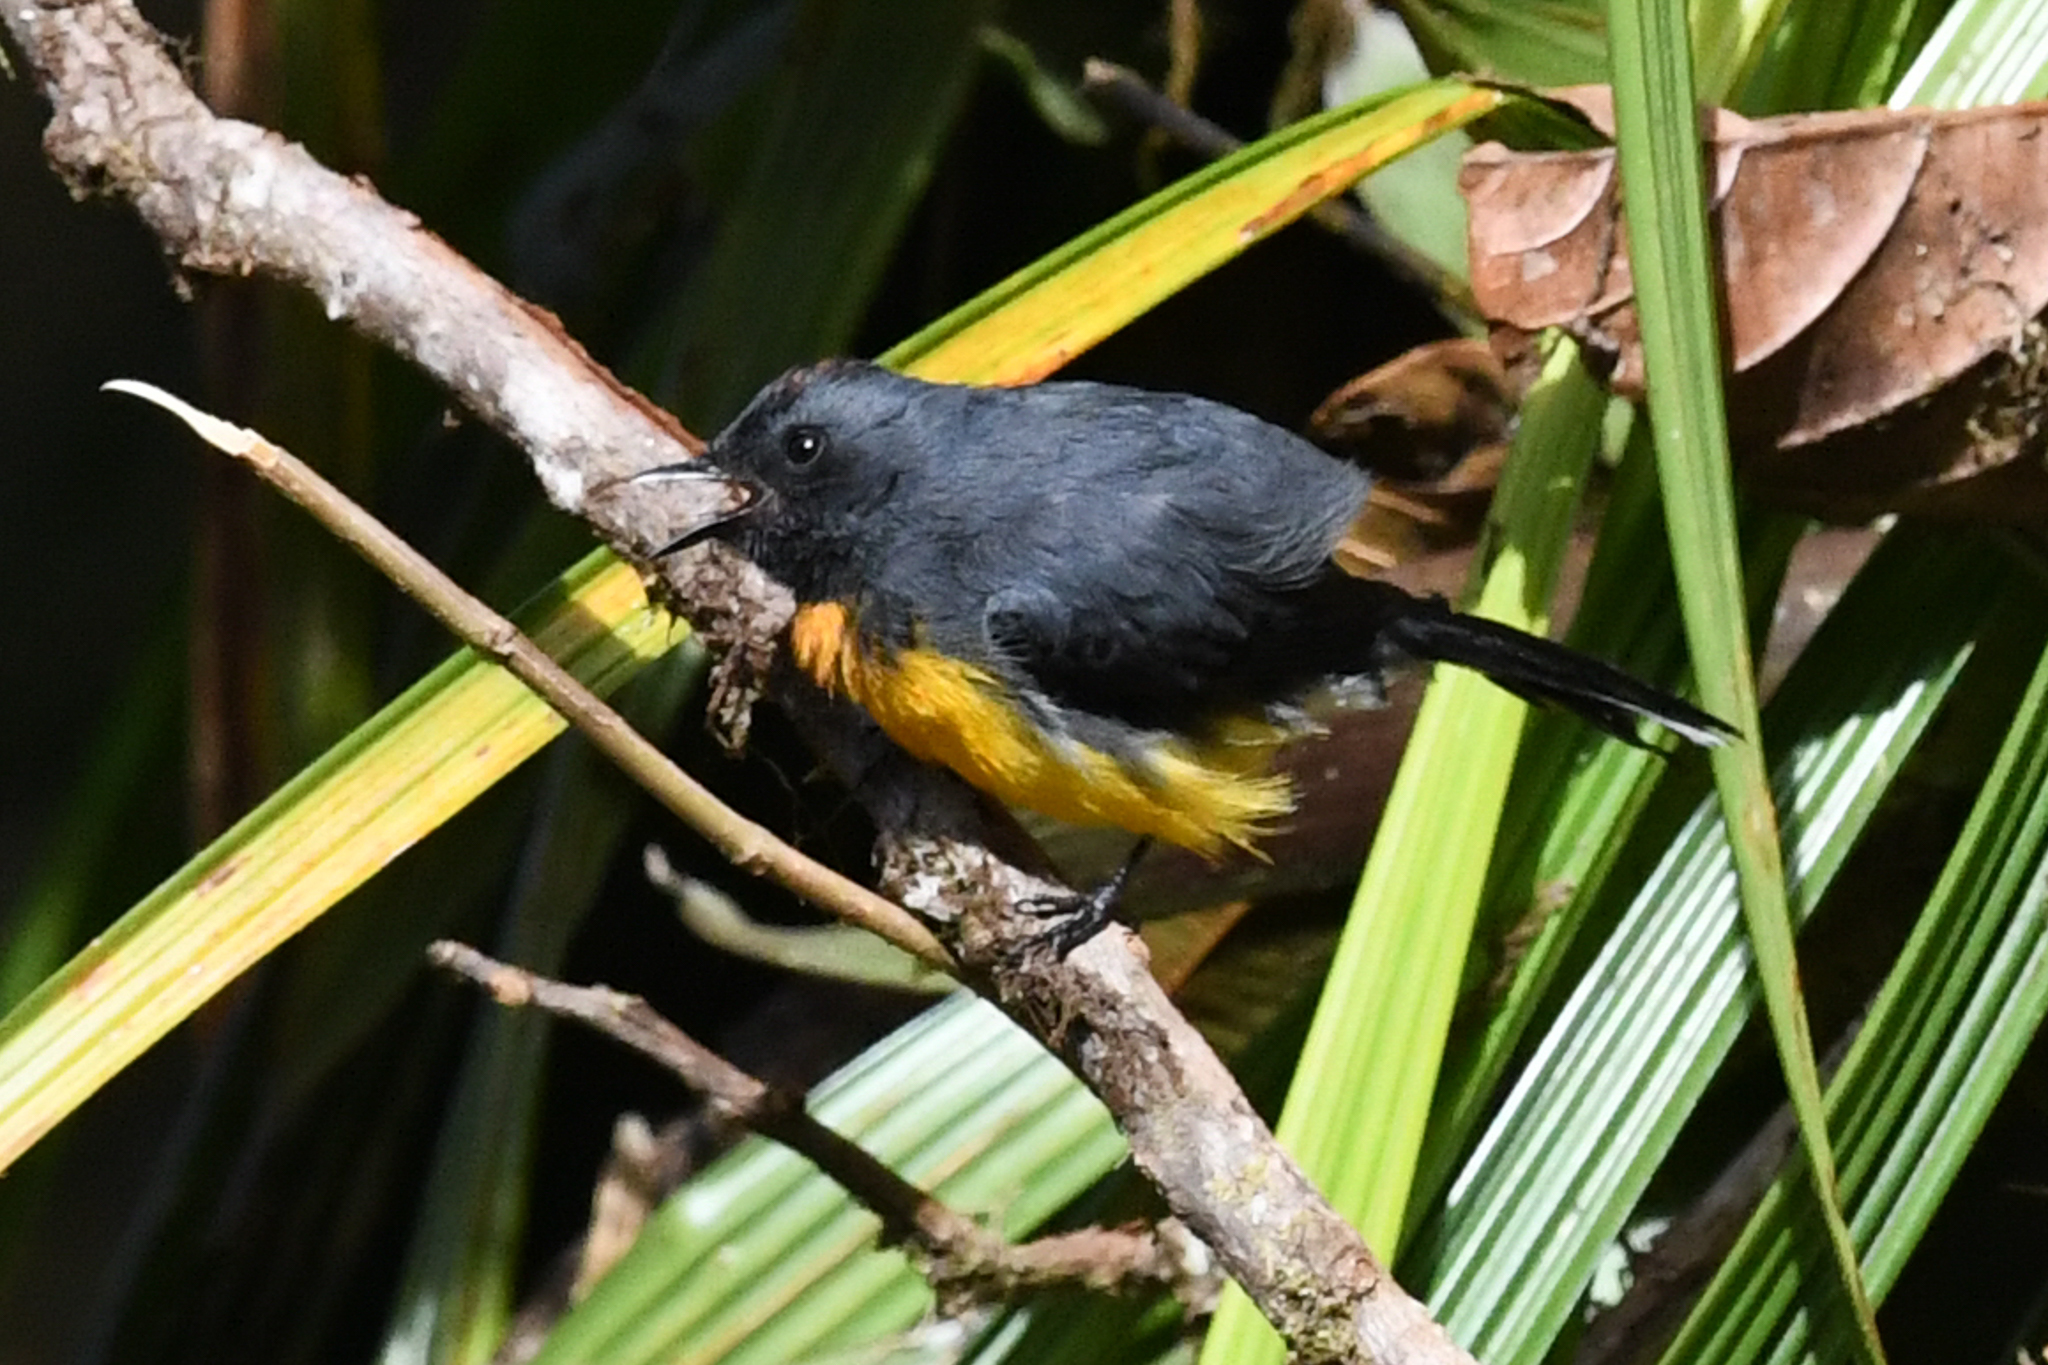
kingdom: Animalia
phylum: Chordata
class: Aves
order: Passeriformes
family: Parulidae
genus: Myioborus
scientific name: Myioborus miniatus
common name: Slate-throated redstart
